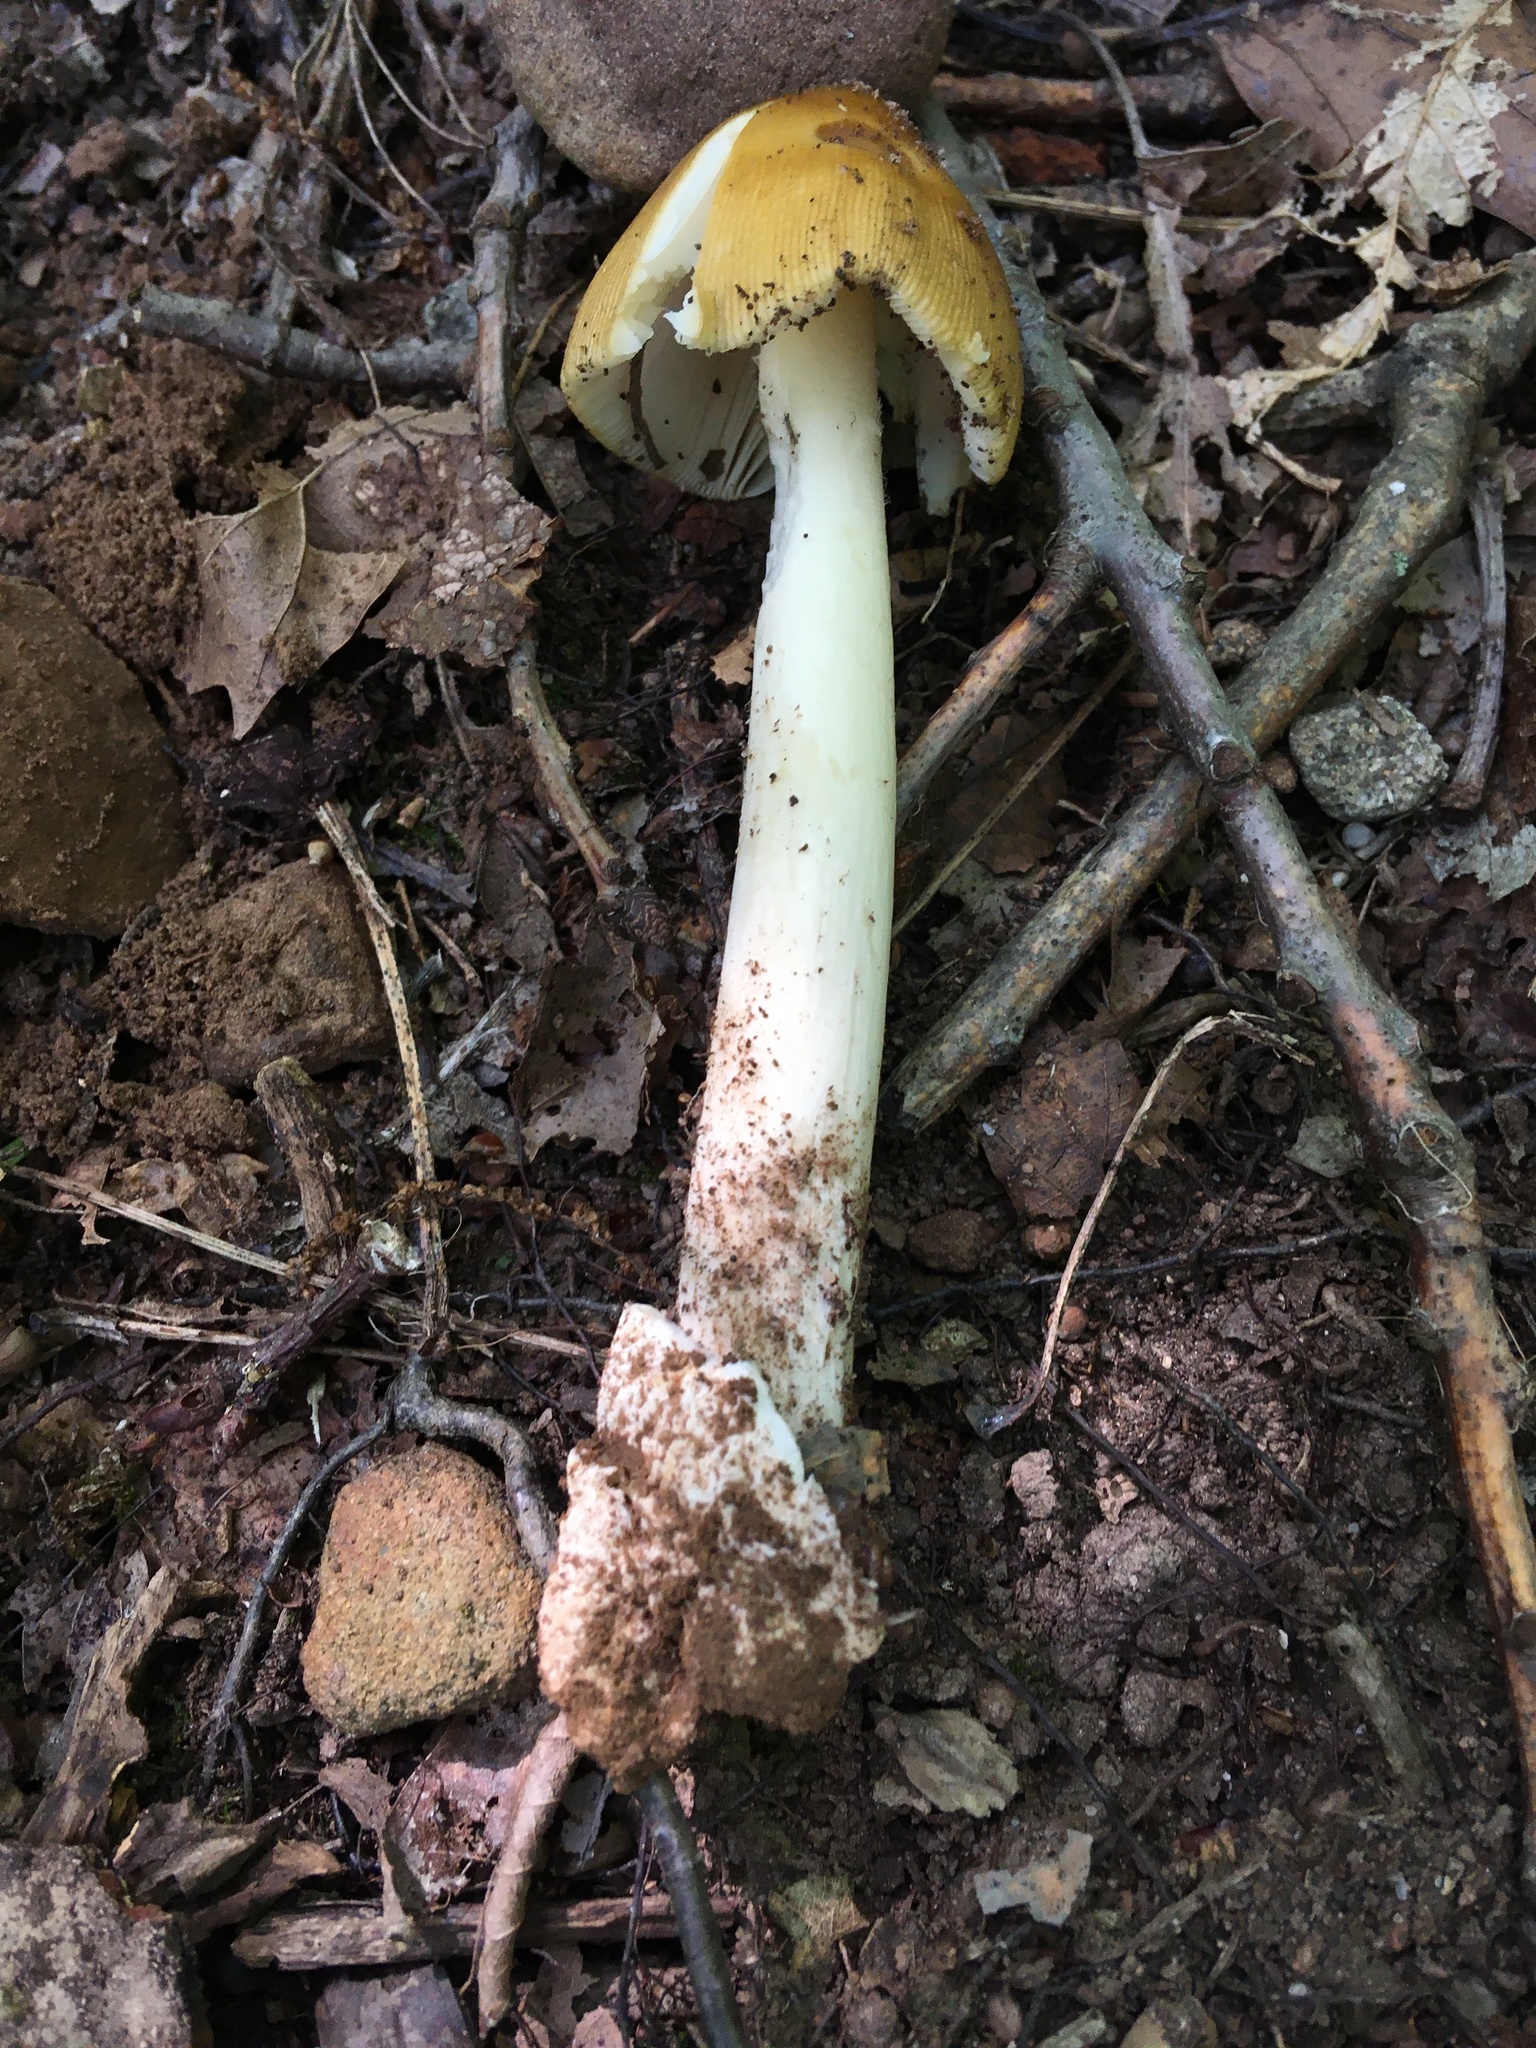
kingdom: Fungi
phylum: Basidiomycota
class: Agaricomycetes
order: Agaricales
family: Amanitaceae
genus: Amanita
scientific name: Amanita fulva
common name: Tawny grisette
